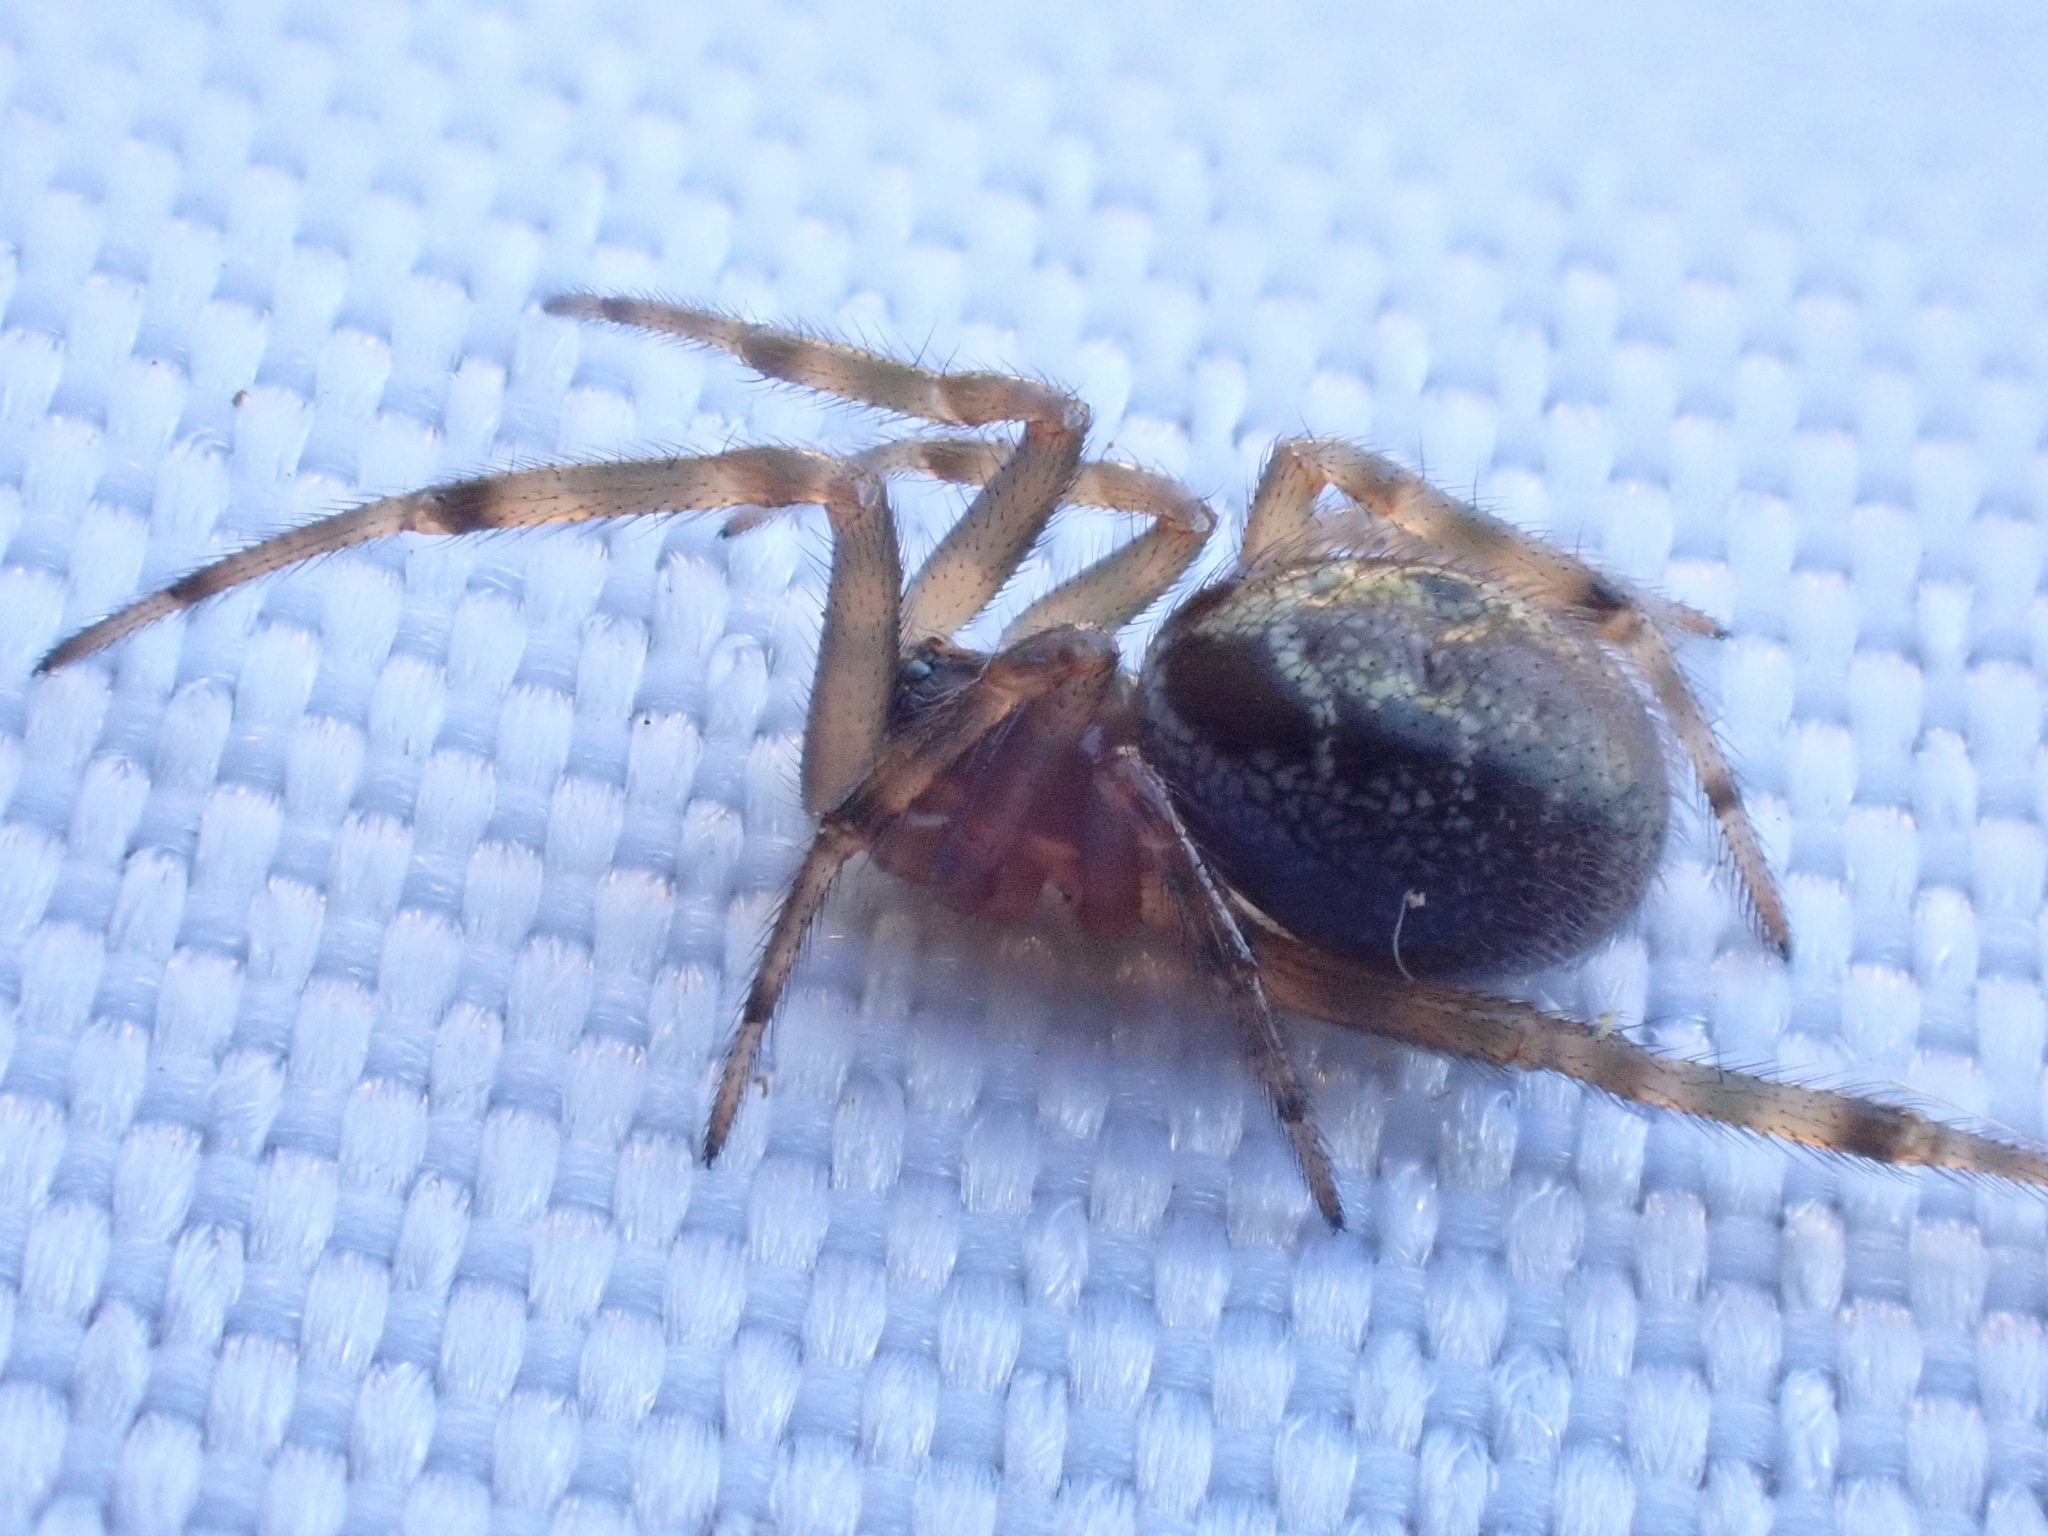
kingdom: Animalia
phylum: Arthropoda
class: Arachnida
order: Araneae
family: Theridiidae
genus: Steatoda
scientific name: Steatoda nobilis
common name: Cobweb weaver
